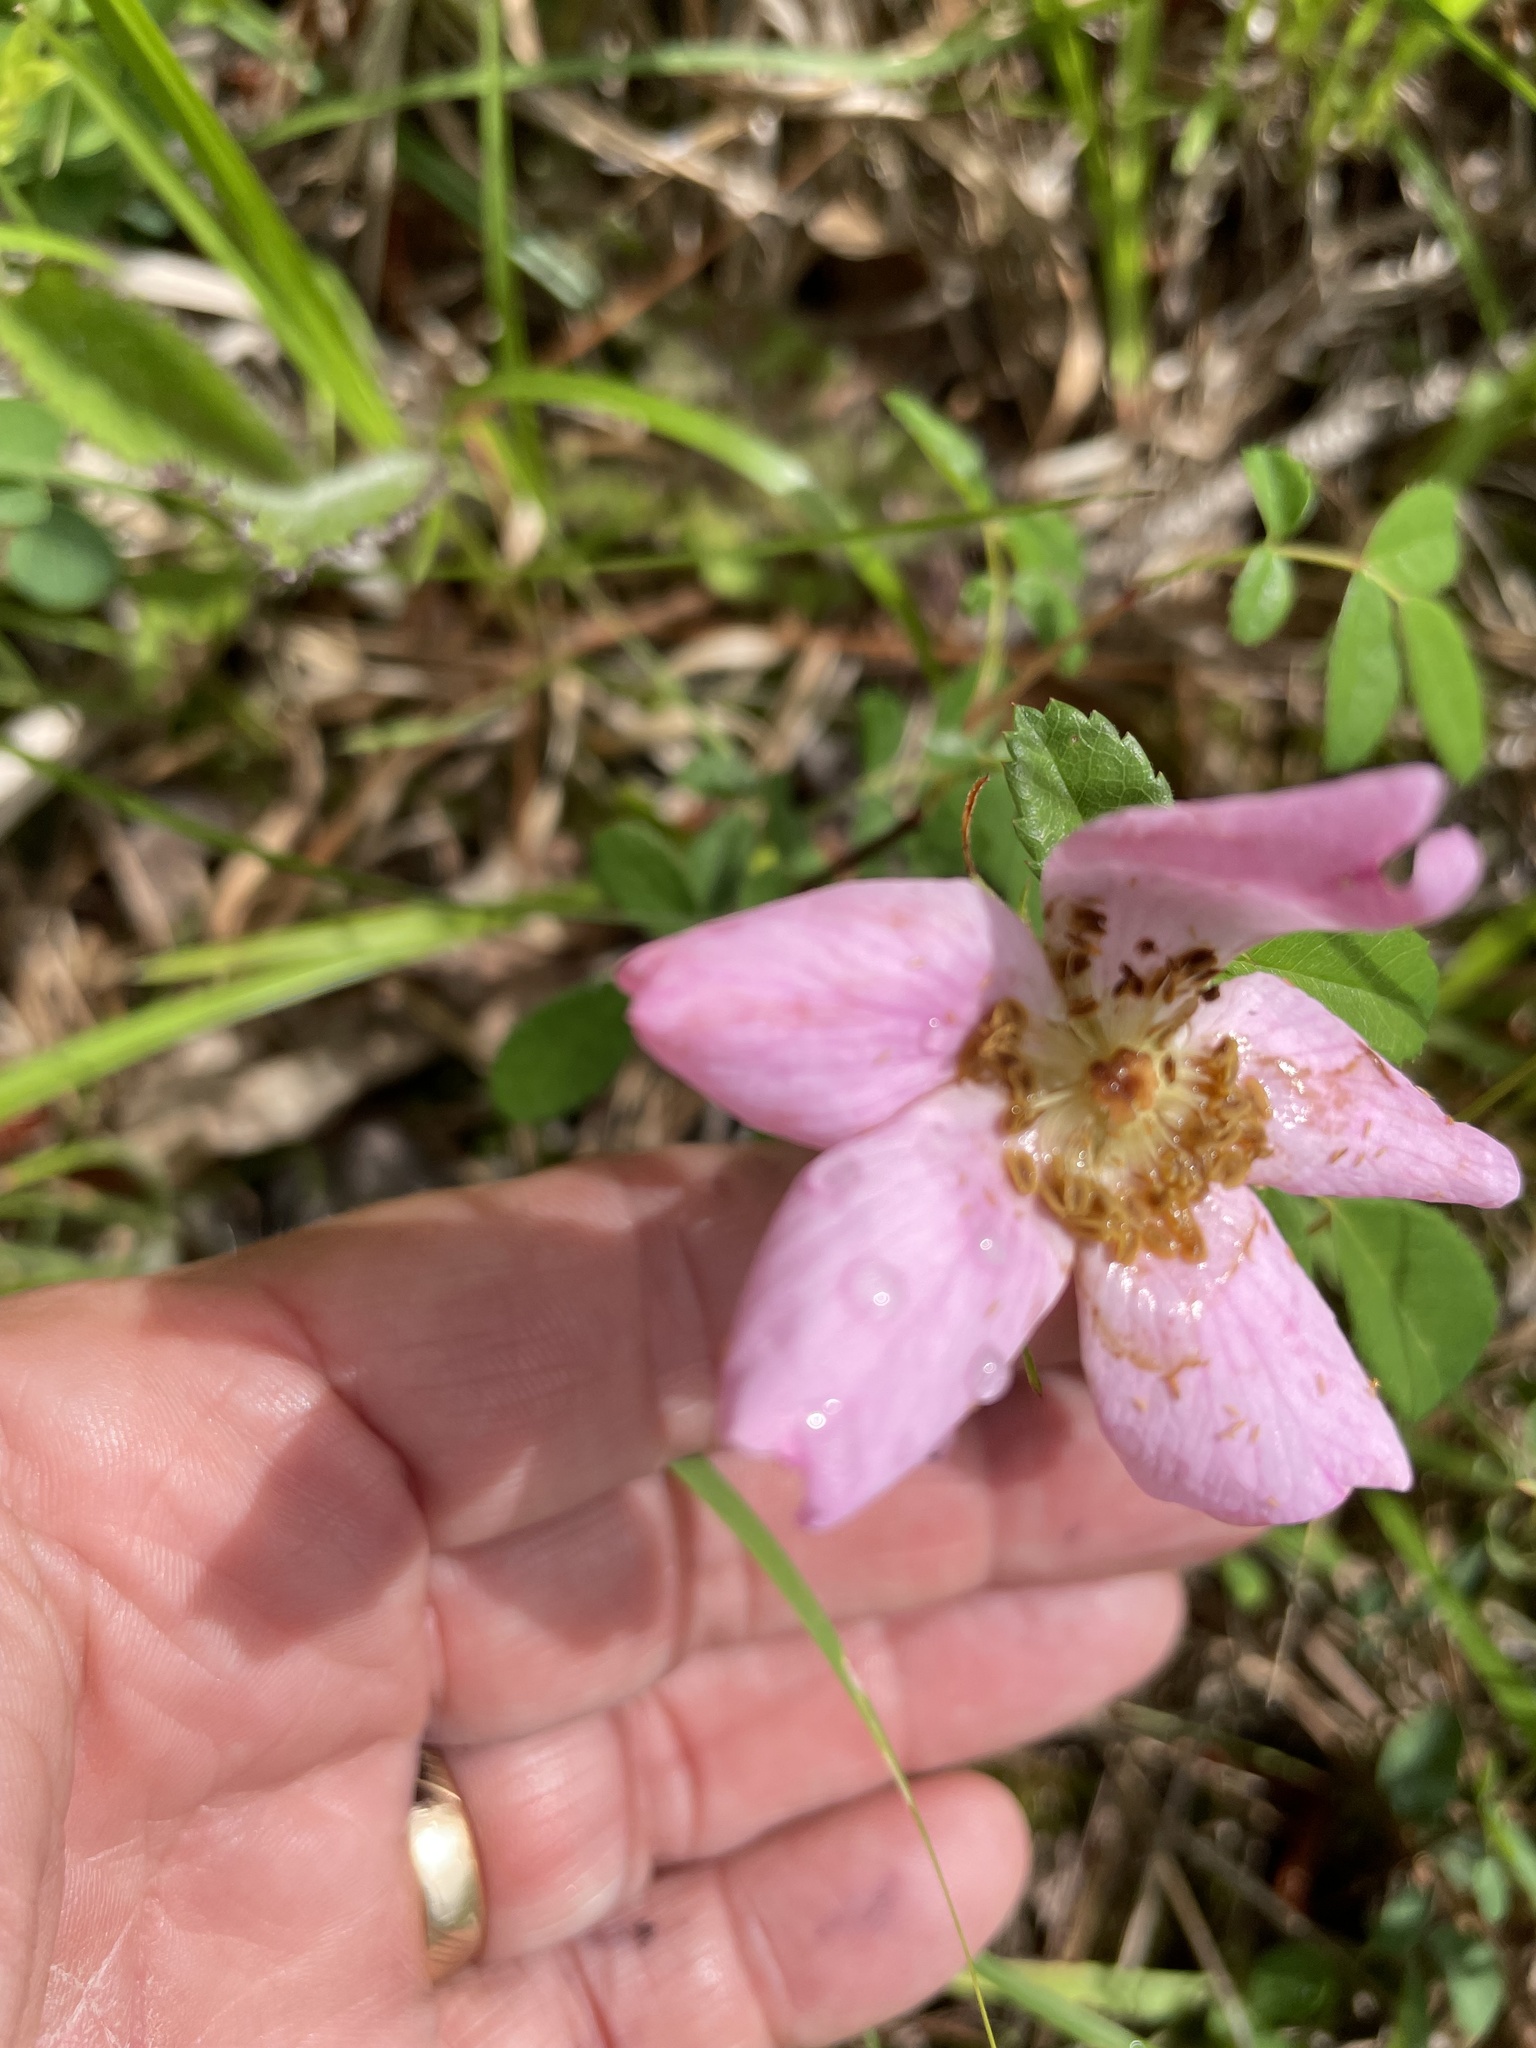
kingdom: Plantae
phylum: Tracheophyta
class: Magnoliopsida
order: Rosales
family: Rosaceae
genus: Rosa
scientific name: Rosa carolina
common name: Pasture rose
